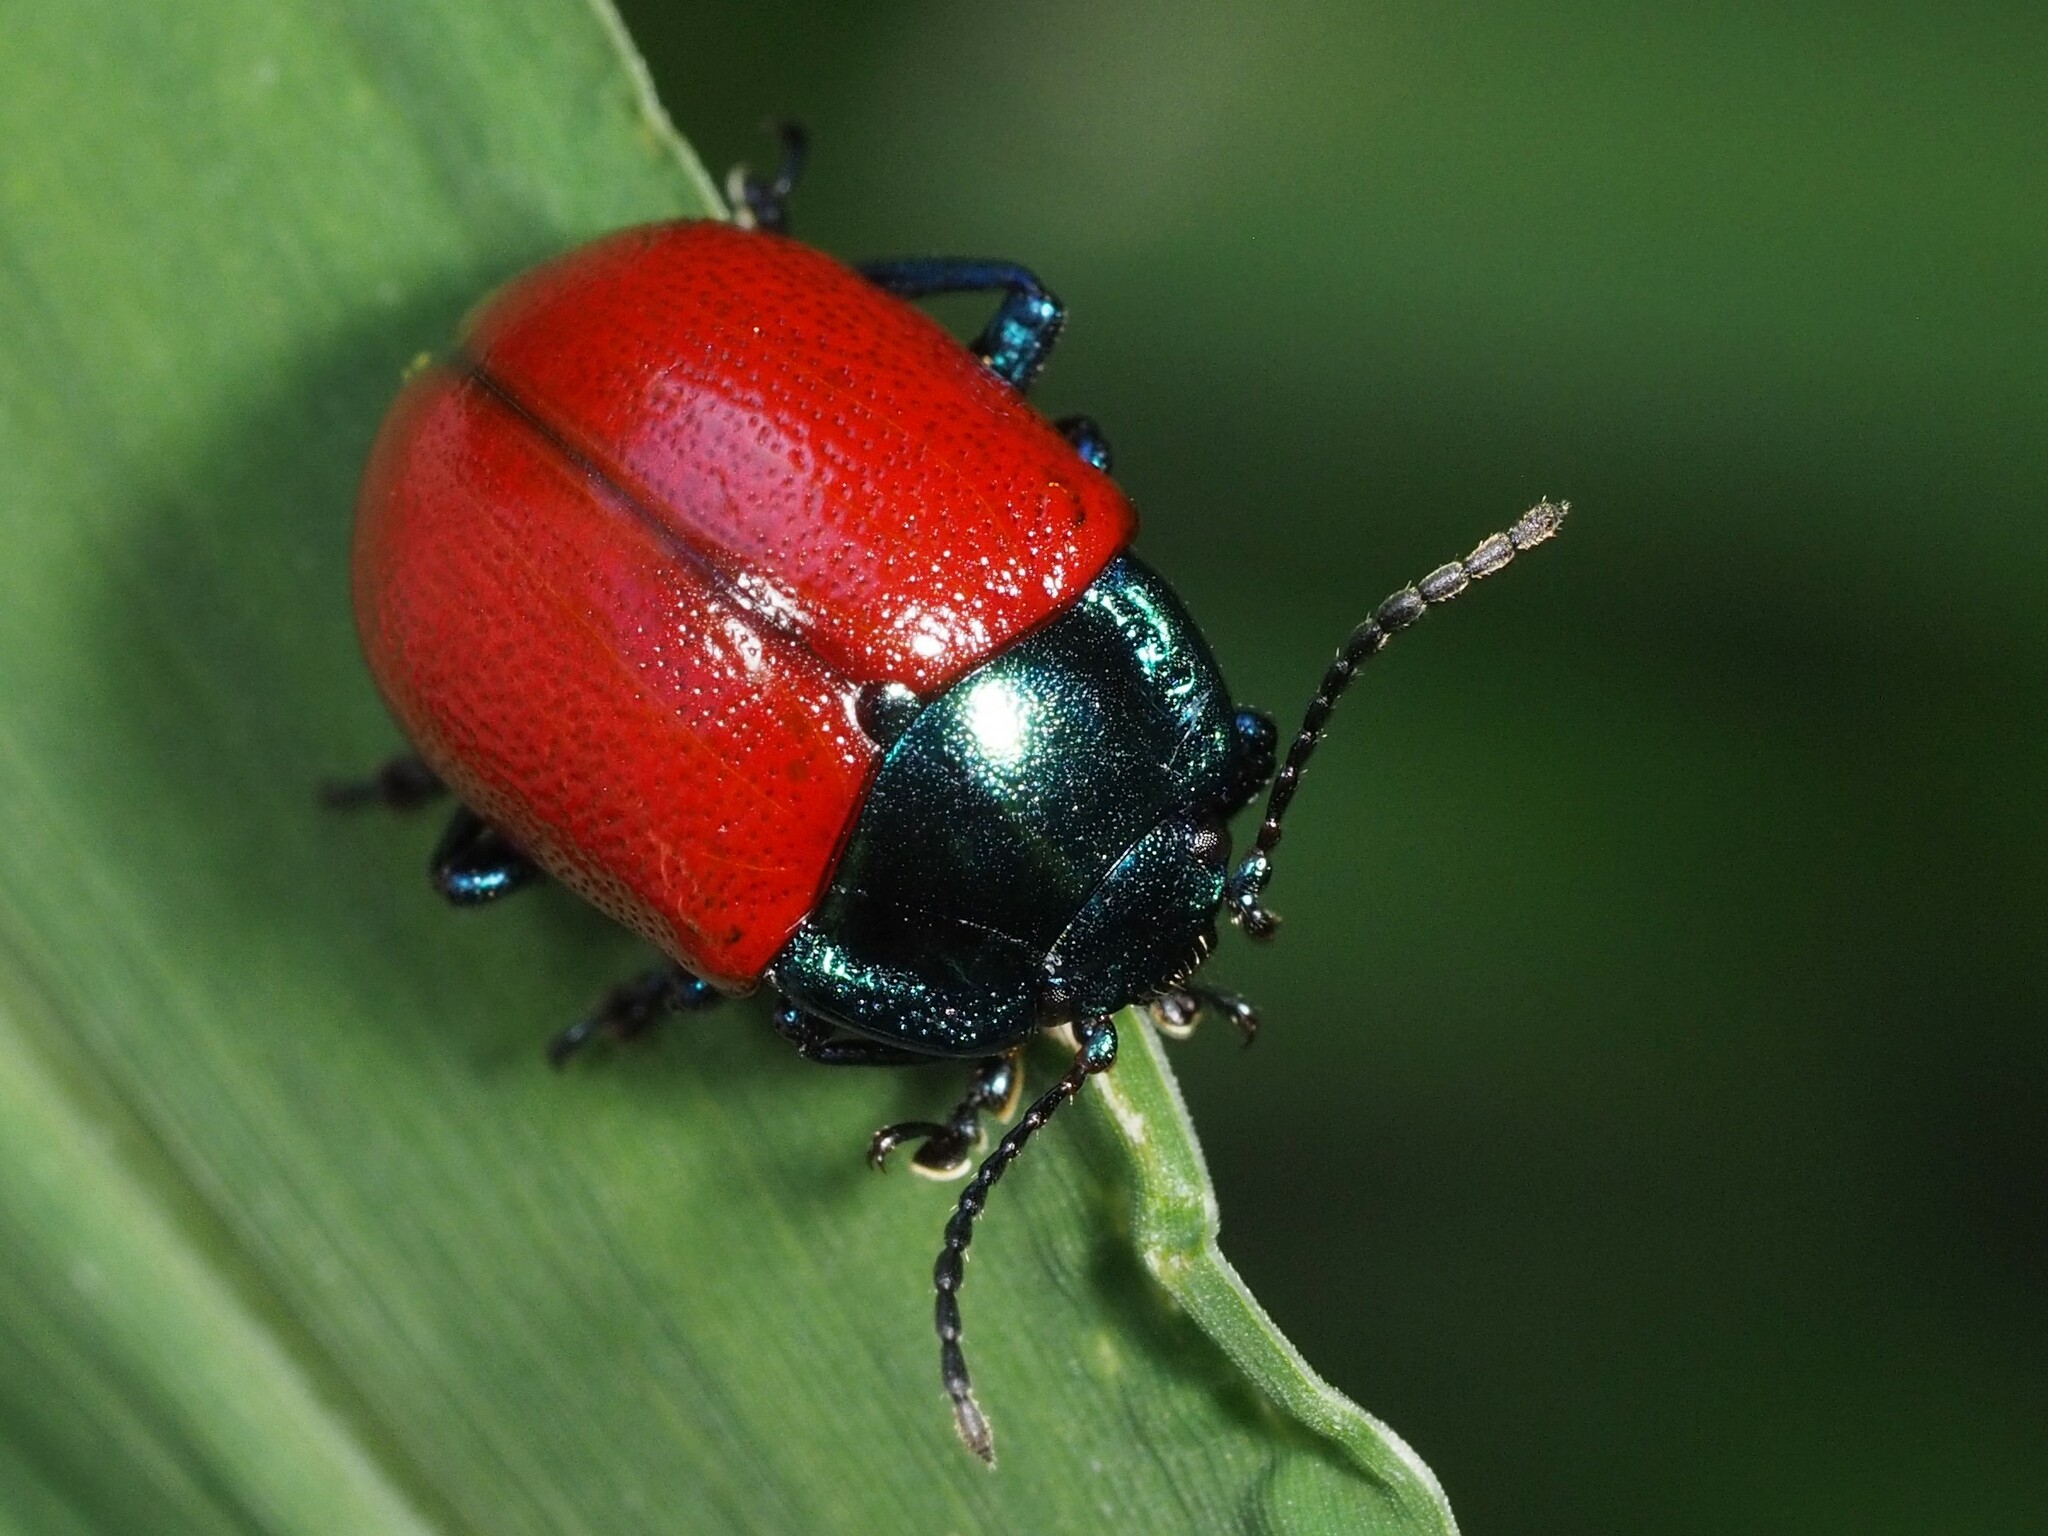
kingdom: Animalia
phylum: Arthropoda
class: Insecta
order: Coleoptera
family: Chrysomelidae
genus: Chrysolina
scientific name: Chrysolina grossa
